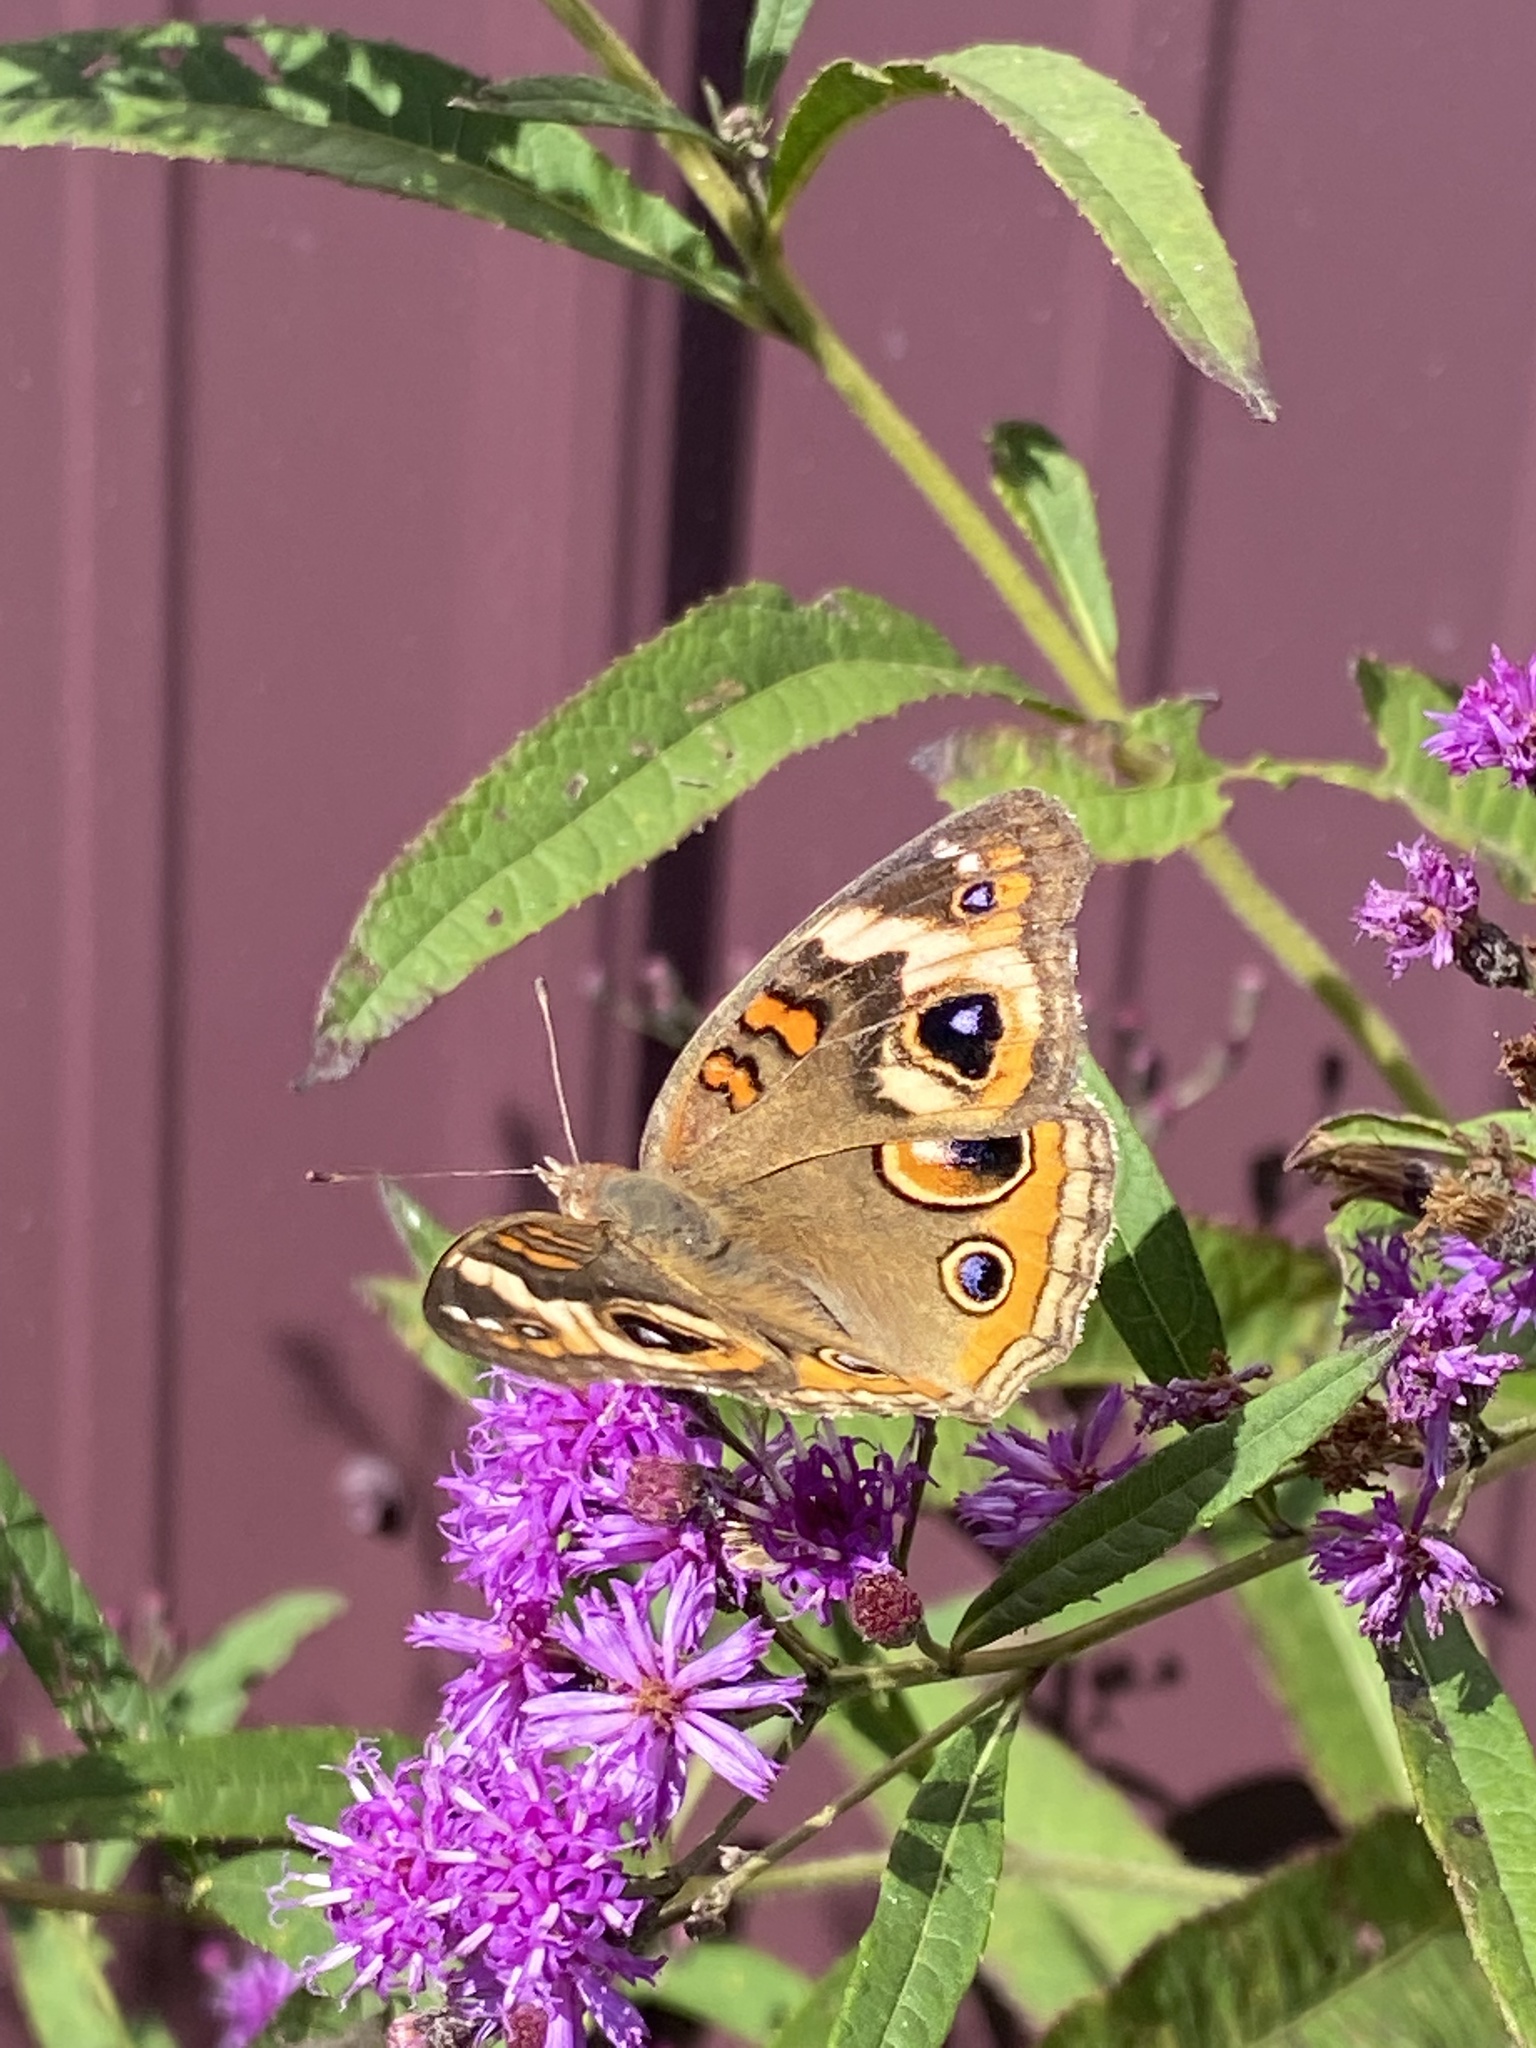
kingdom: Animalia
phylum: Arthropoda
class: Insecta
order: Lepidoptera
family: Nymphalidae
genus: Junonia
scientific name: Junonia coenia
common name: Common buckeye
